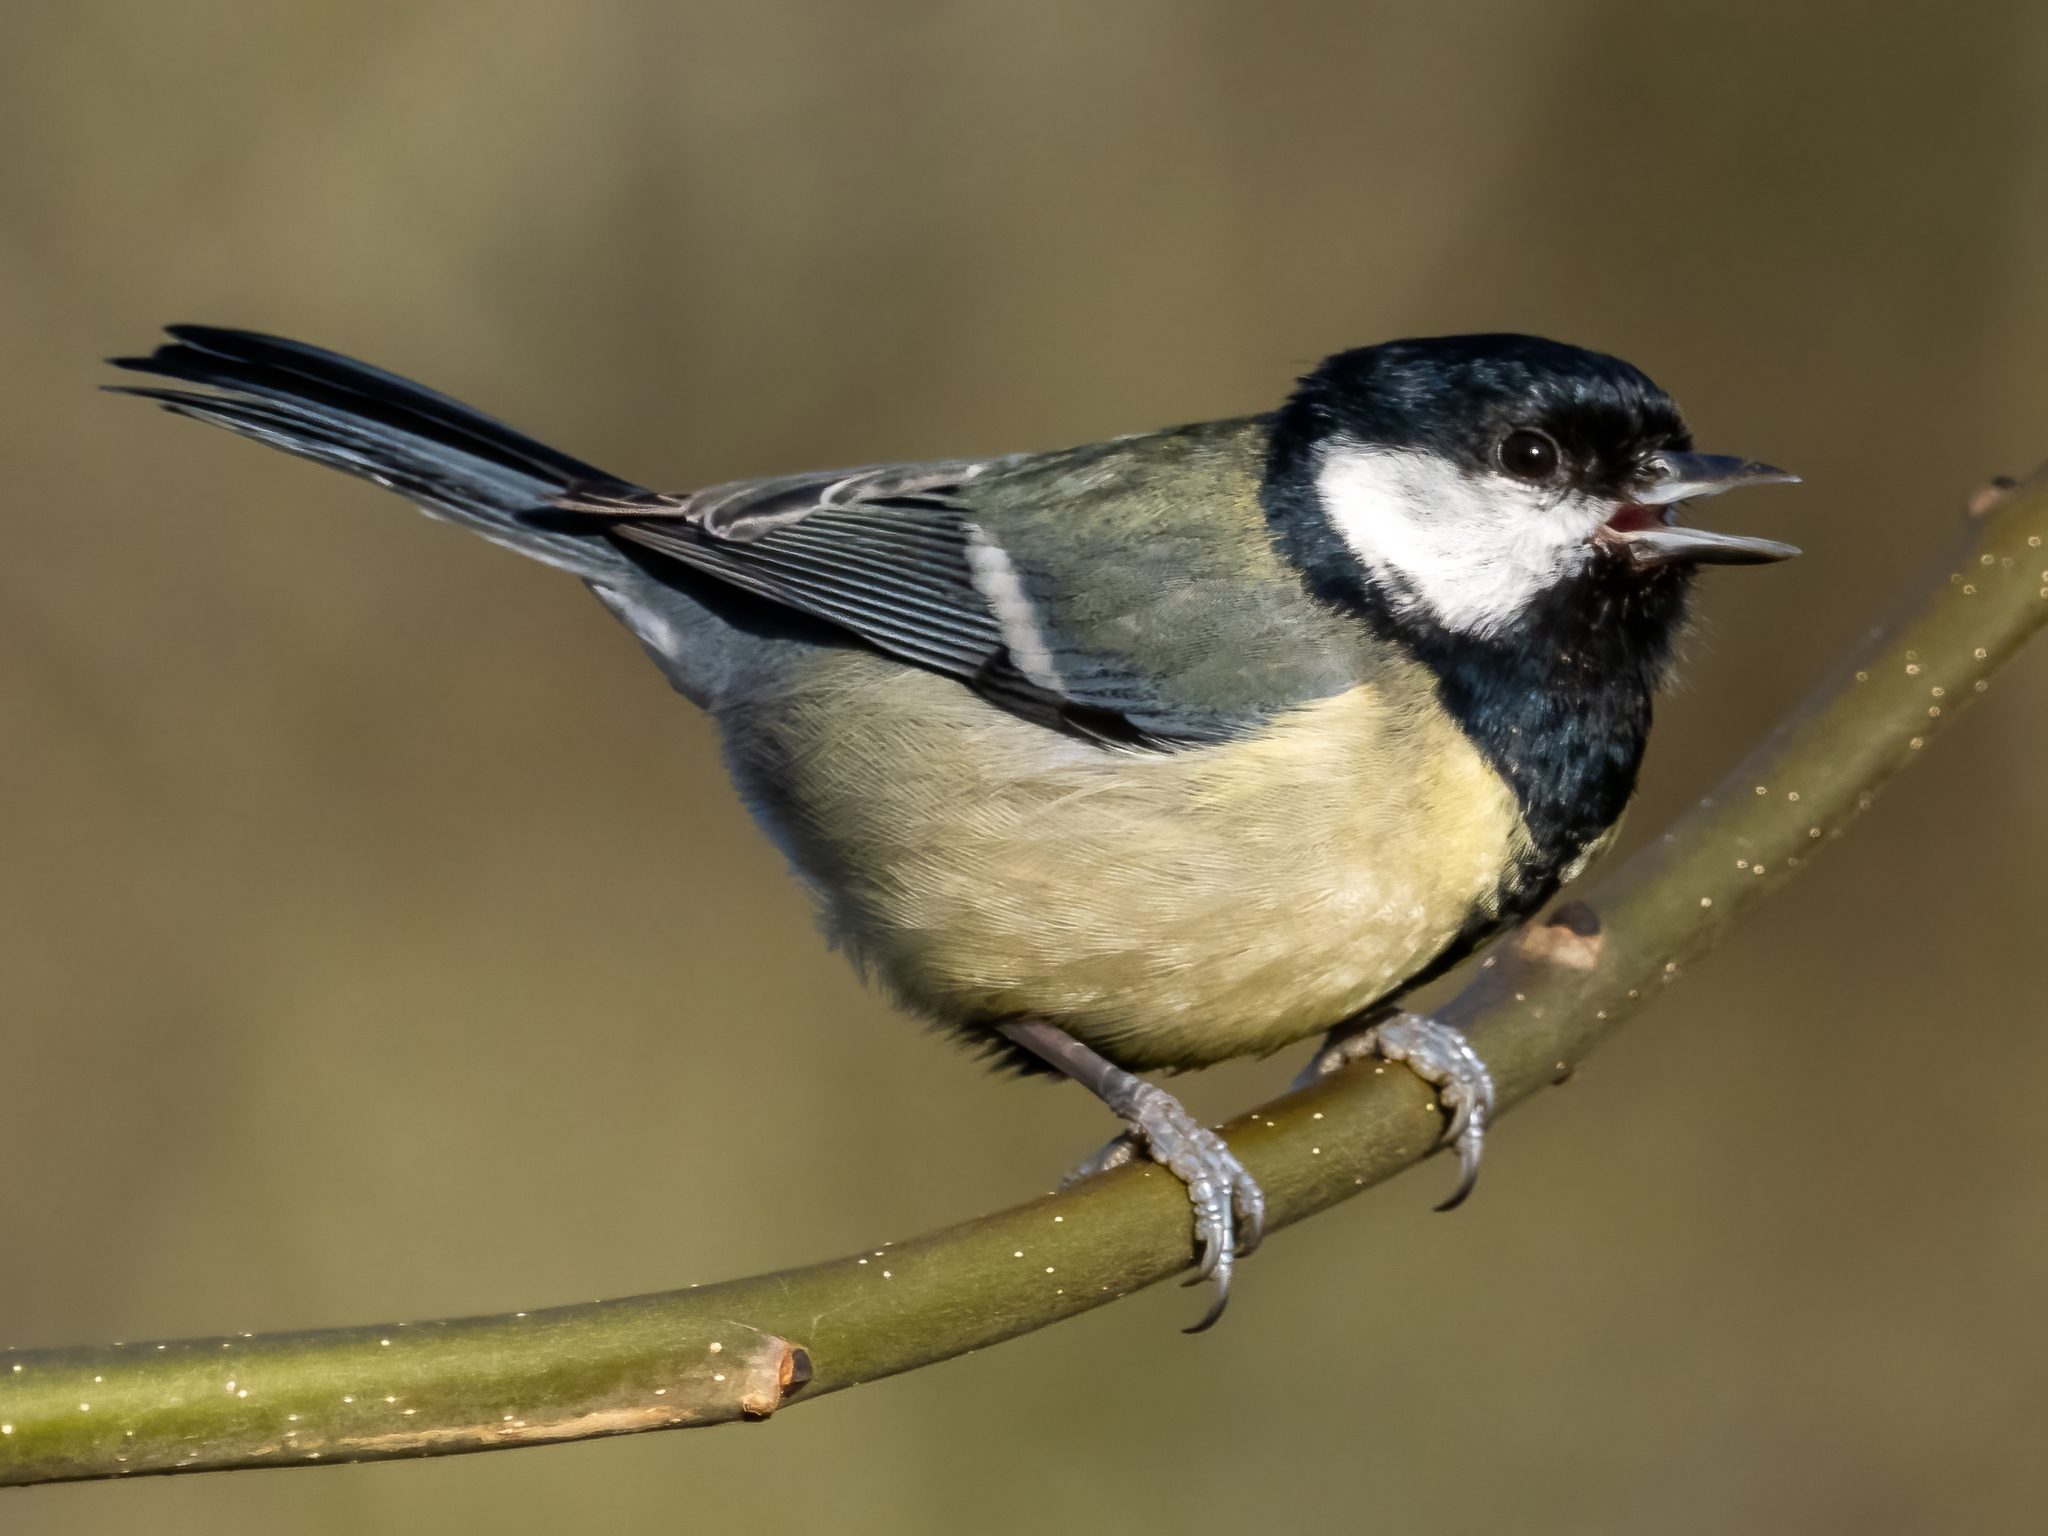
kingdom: Animalia
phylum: Chordata
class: Aves
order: Passeriformes
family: Paridae
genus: Parus
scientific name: Parus major
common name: Great tit
